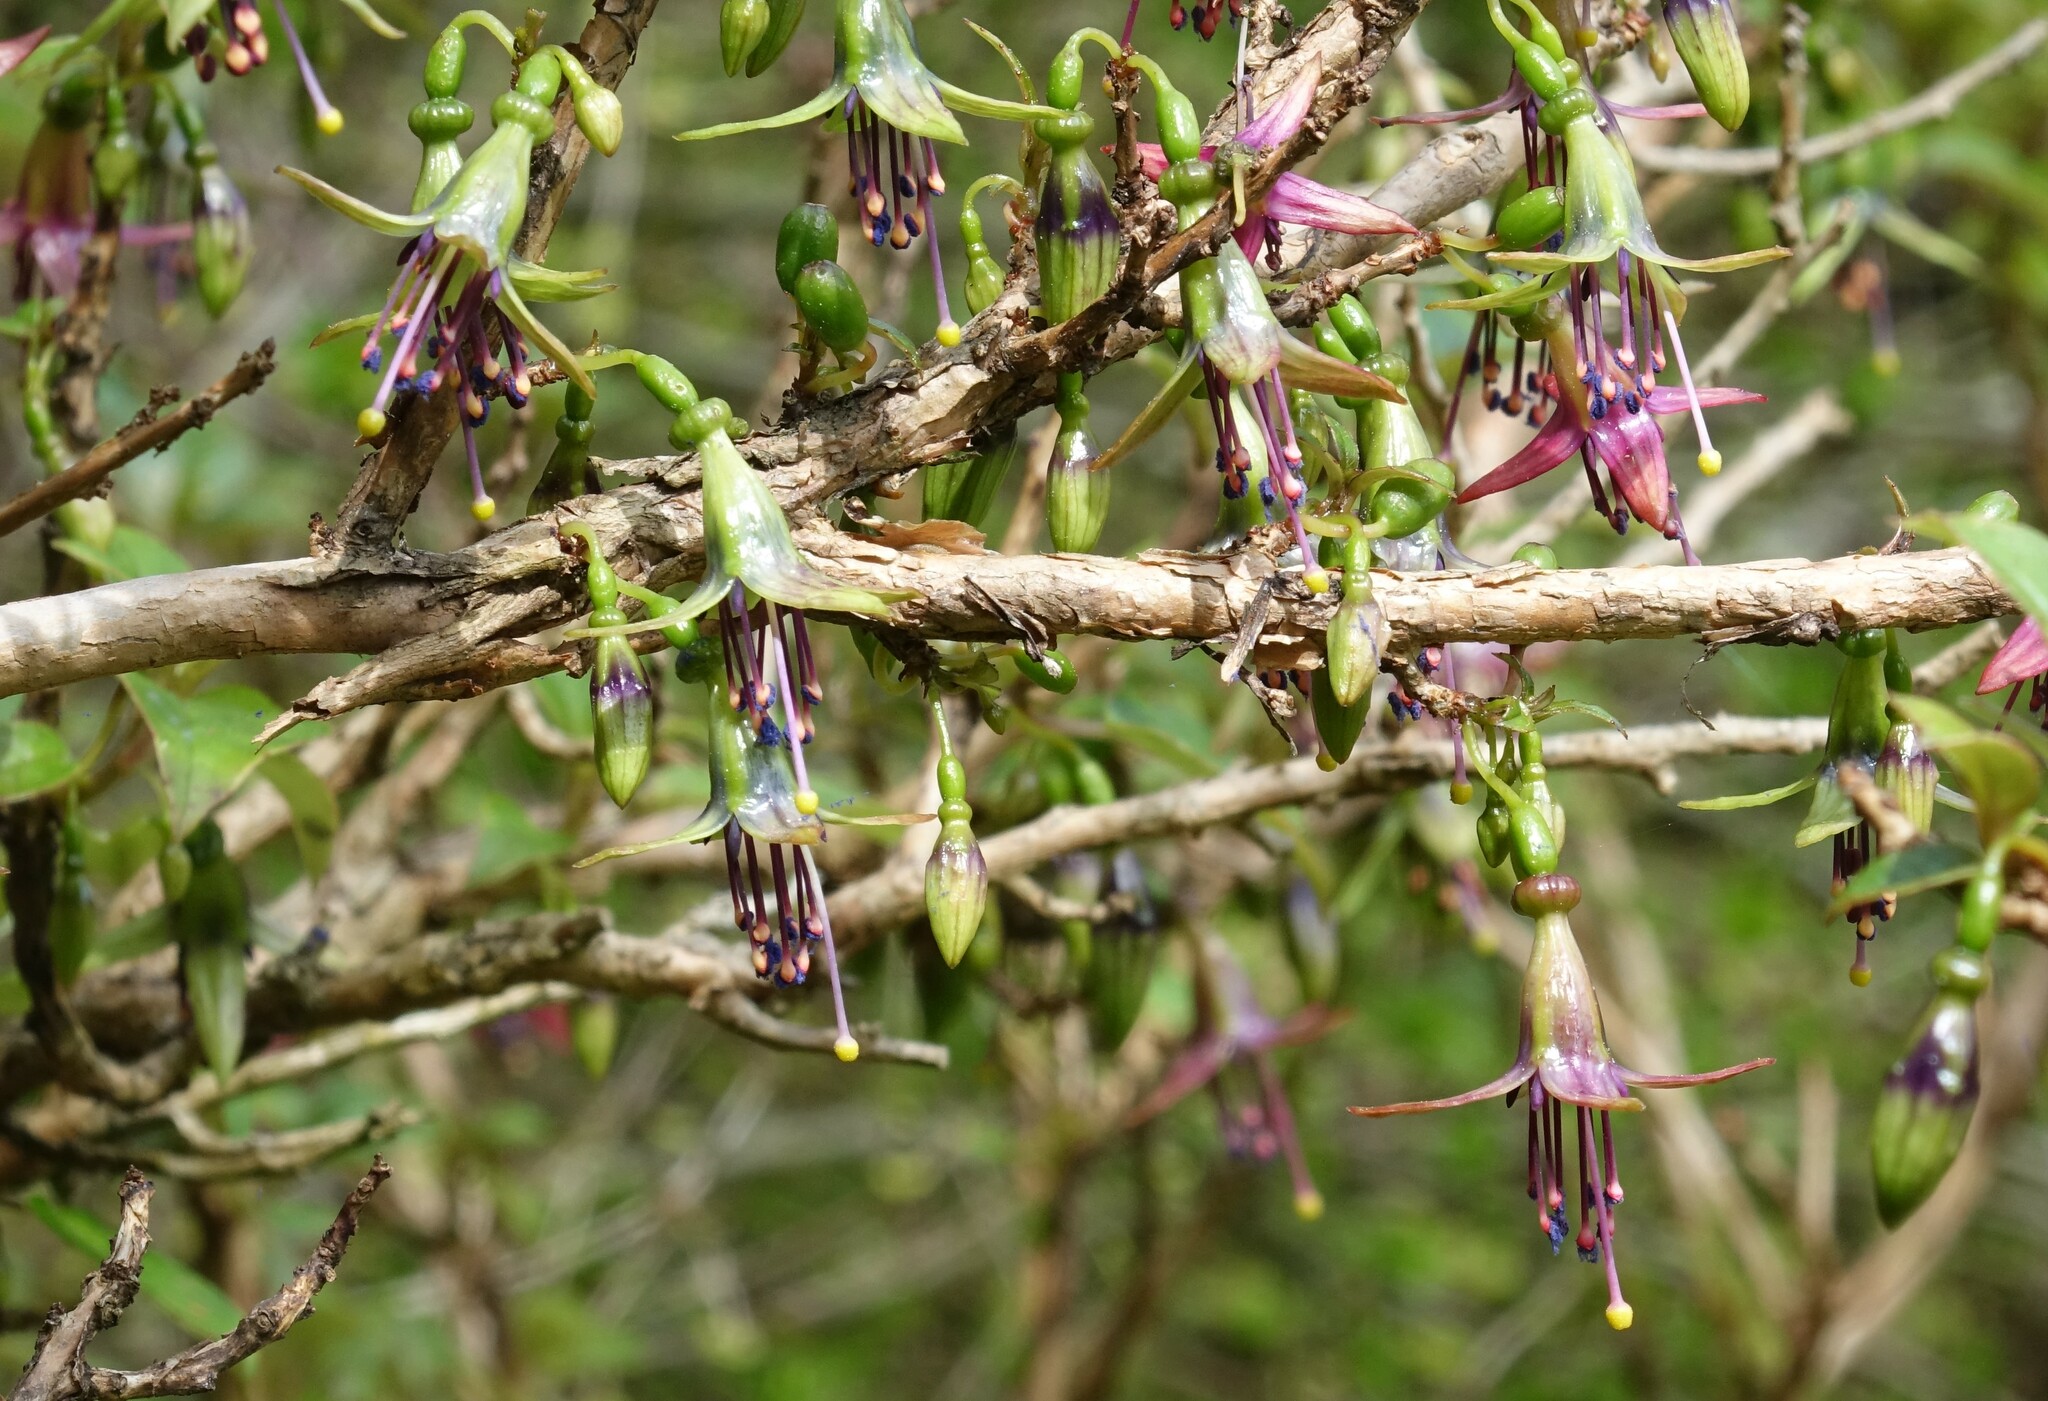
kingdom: Plantae
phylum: Tracheophyta
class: Magnoliopsida
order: Myrtales
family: Onagraceae
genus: Fuchsia
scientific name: Fuchsia excorticata
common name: Tree fuchsia
